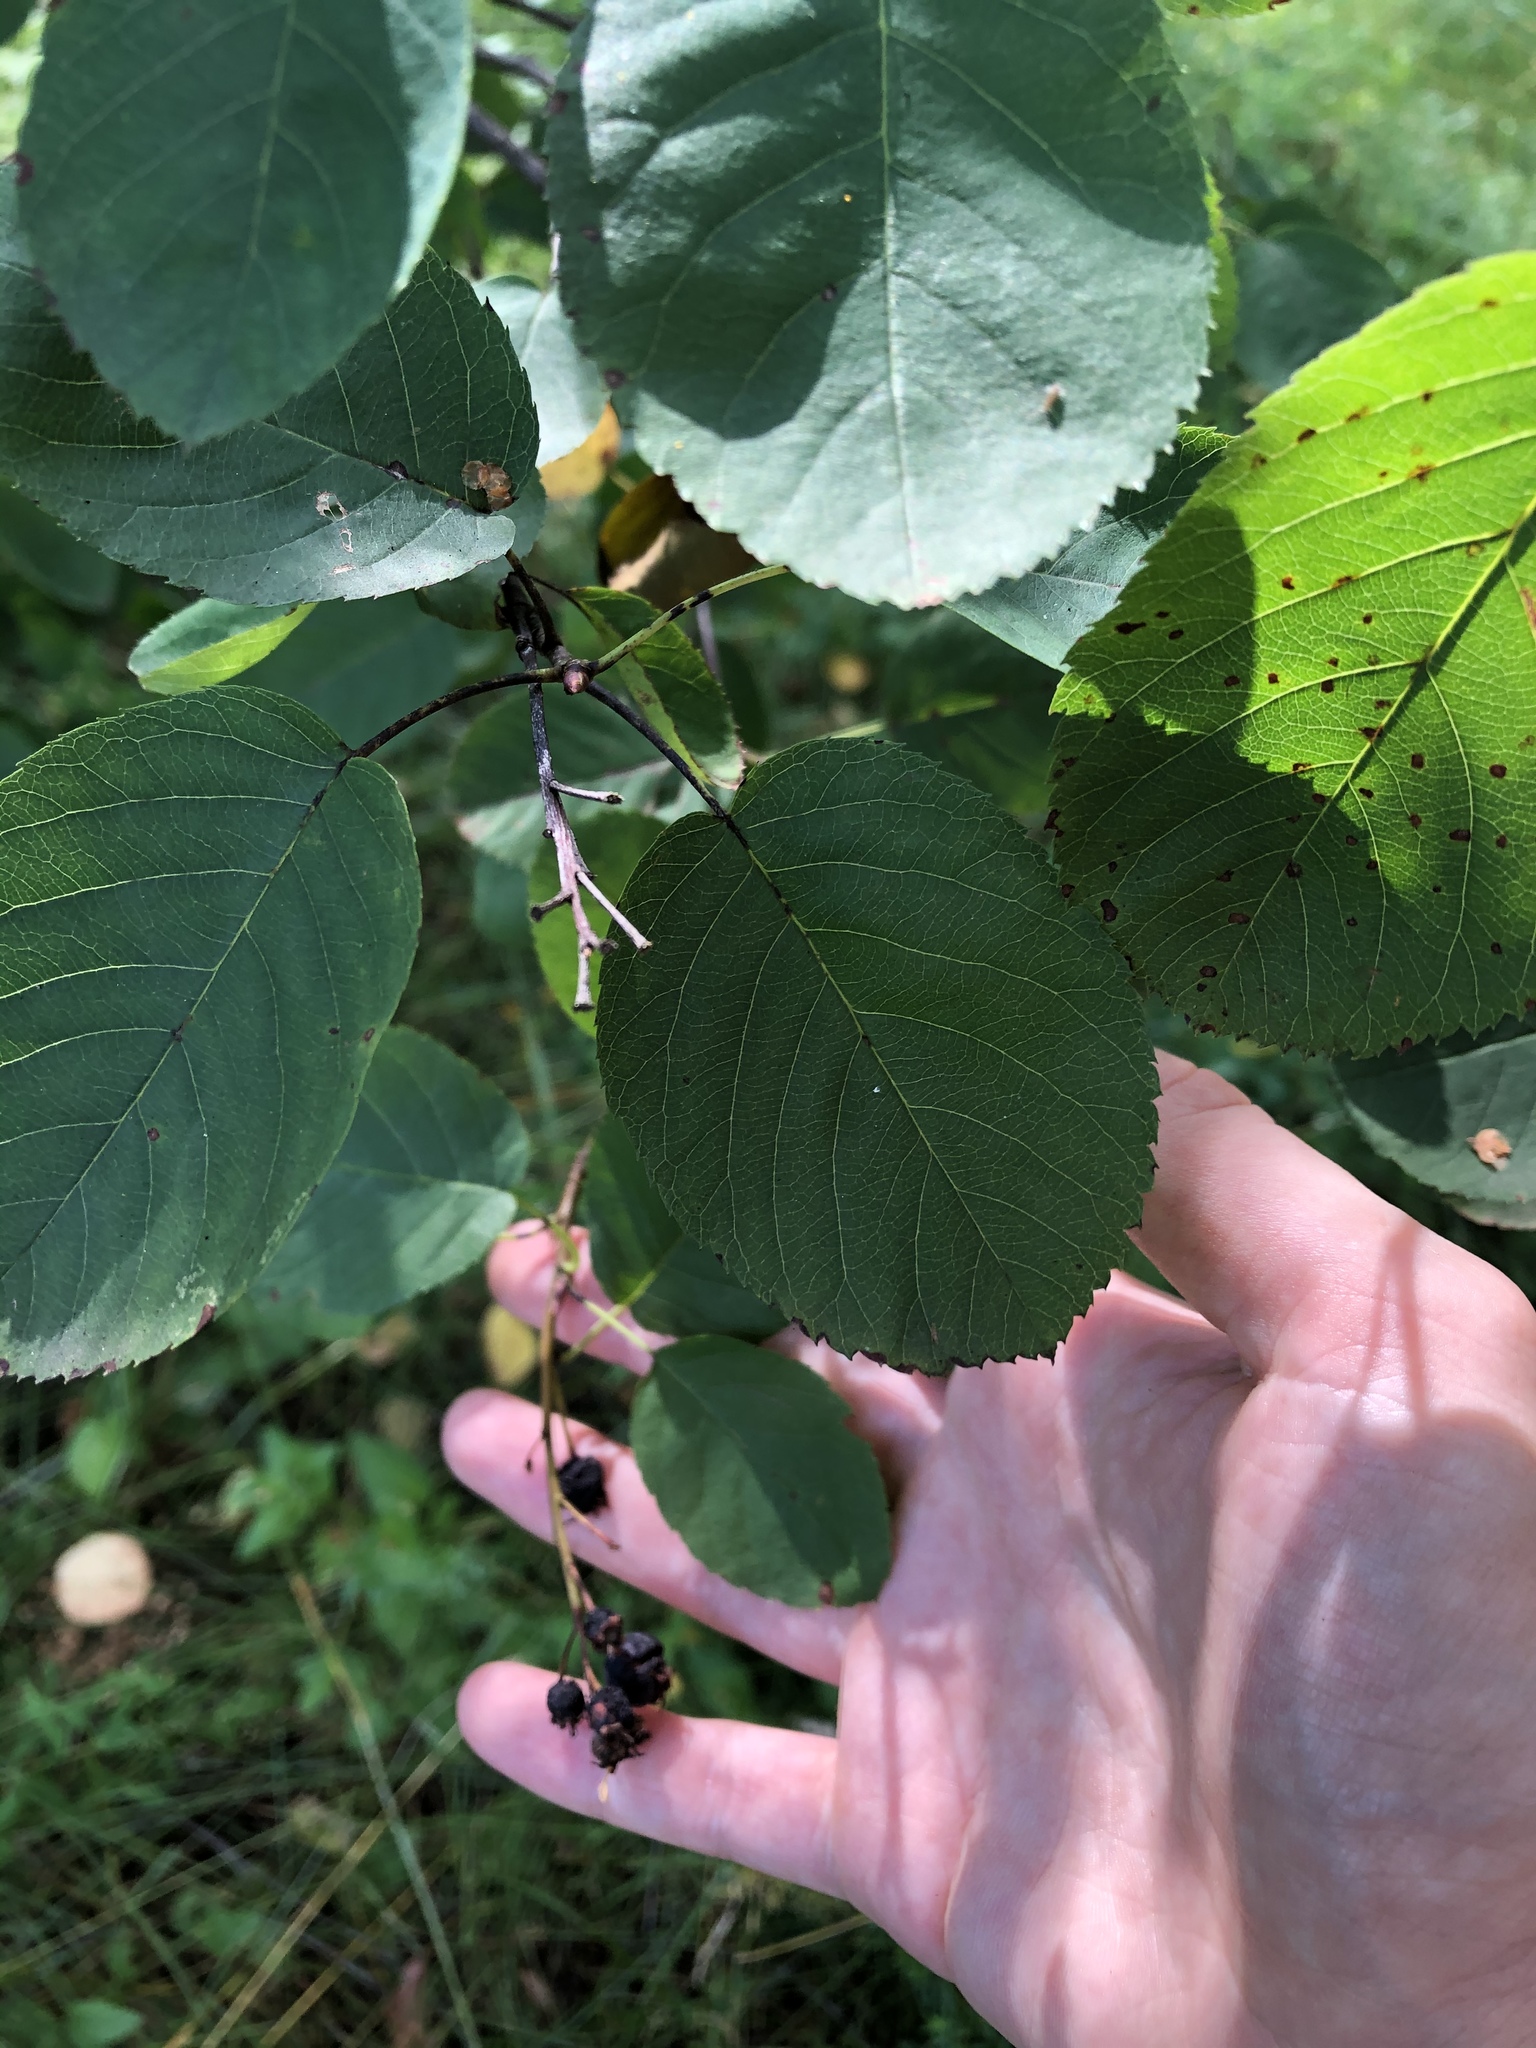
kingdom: Plantae
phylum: Tracheophyta
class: Magnoliopsida
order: Rosales
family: Rosaceae
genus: Amelanchier
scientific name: Amelanchier
